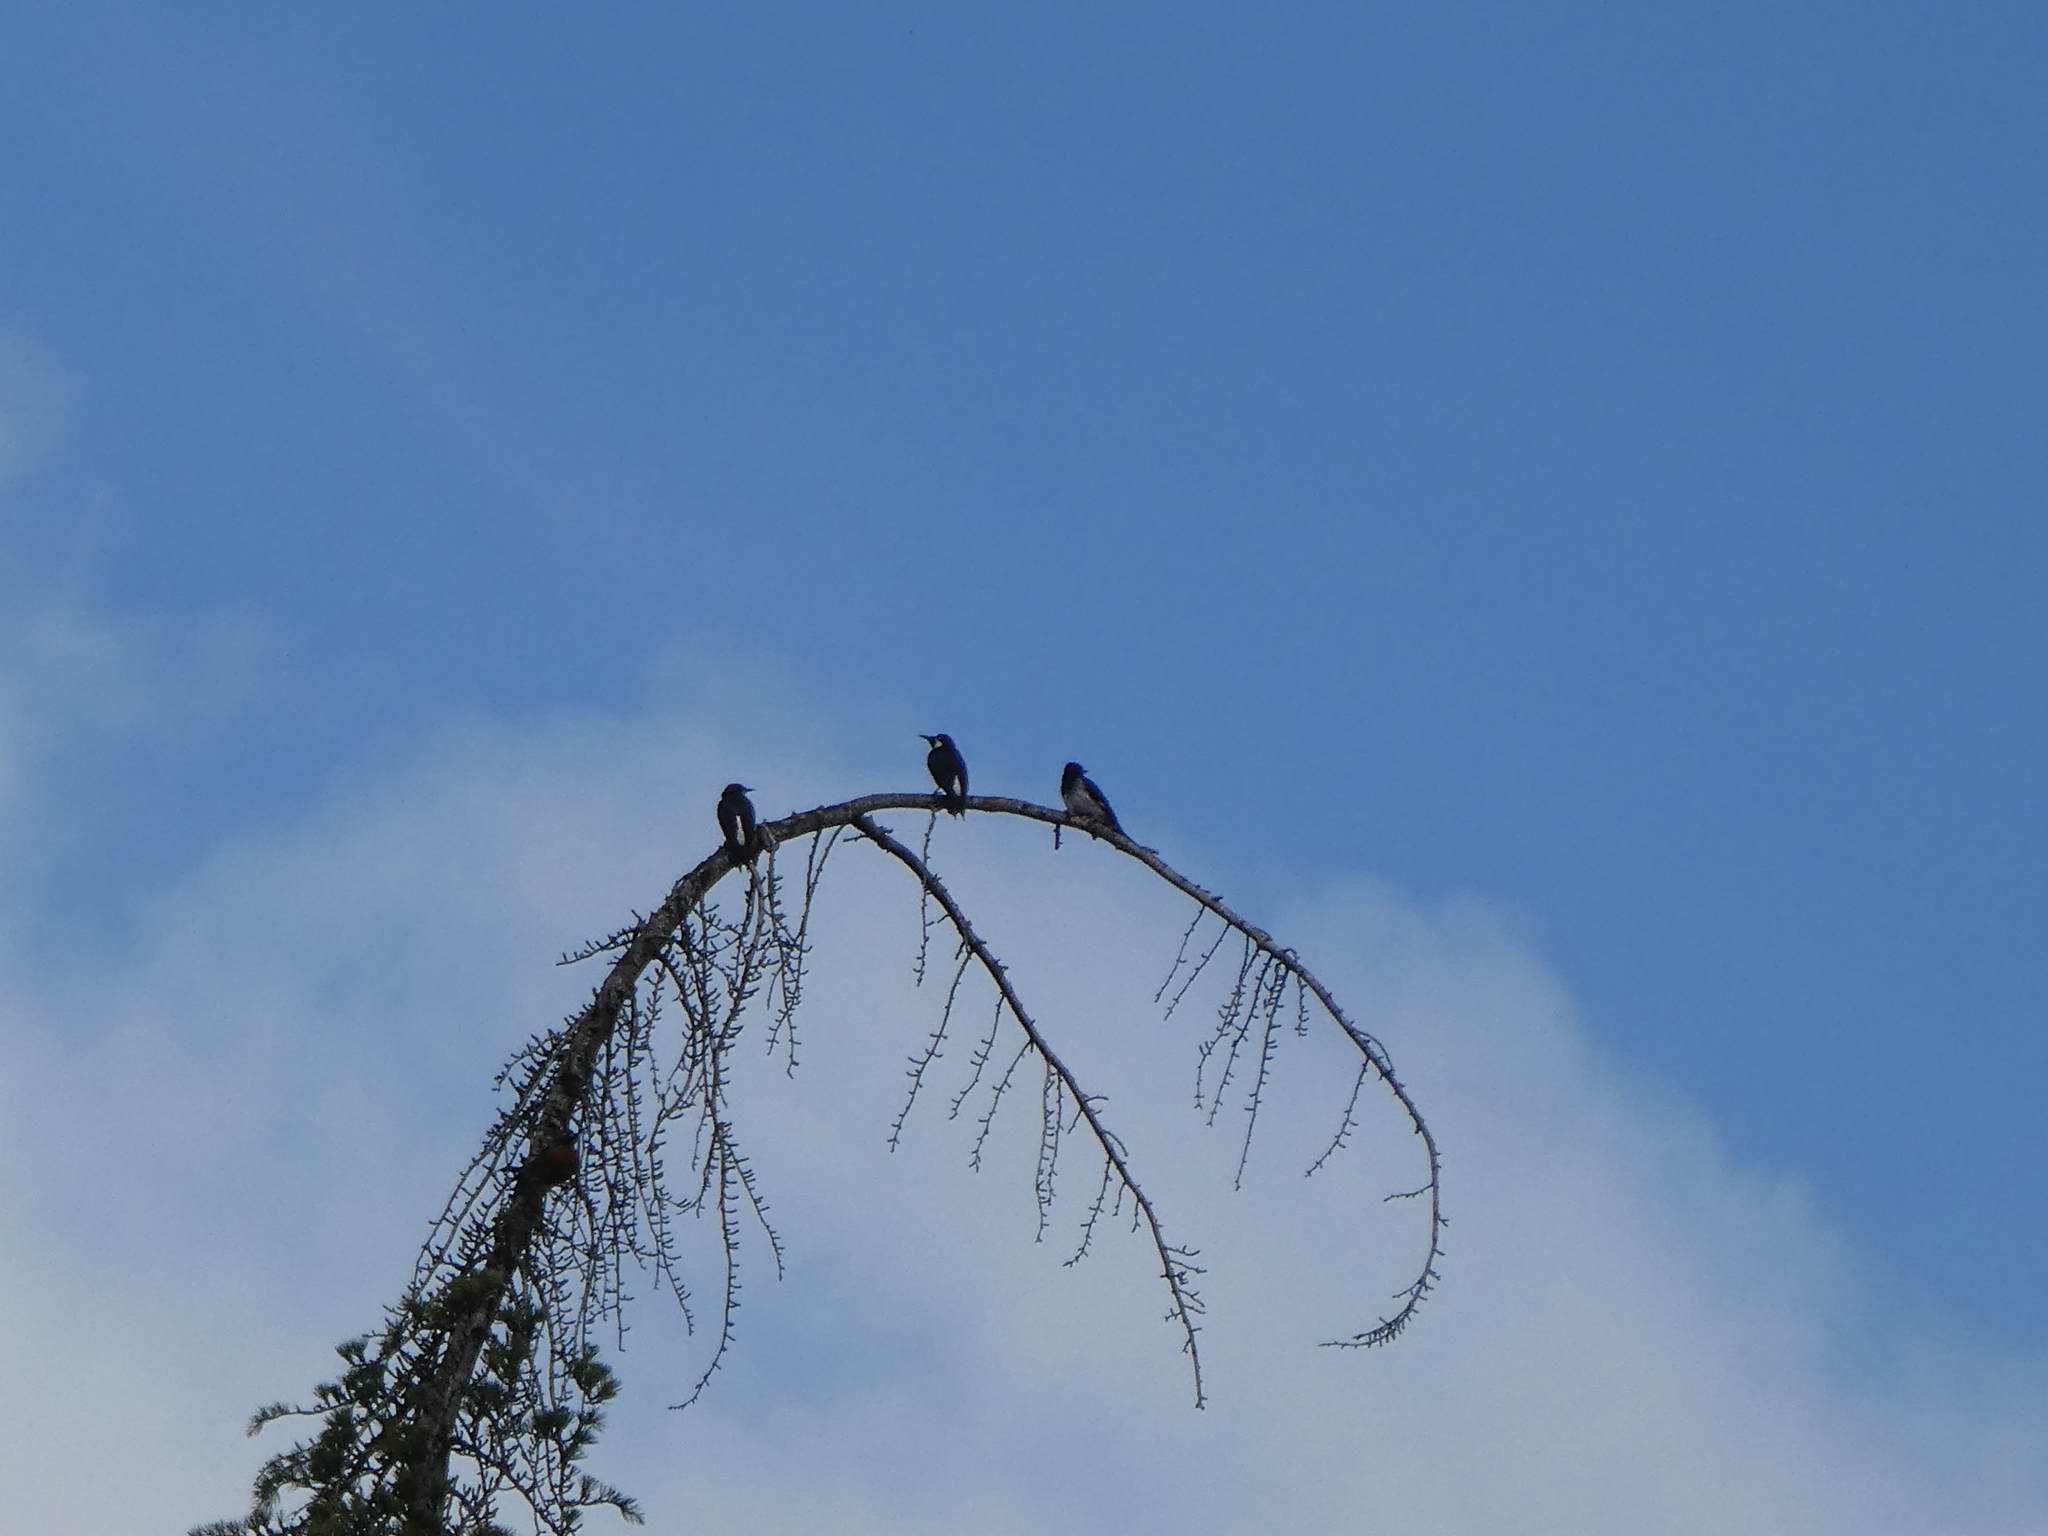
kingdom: Animalia
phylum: Chordata
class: Aves
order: Piciformes
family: Picidae
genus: Melanerpes
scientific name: Melanerpes formicivorus
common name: Acorn woodpecker
